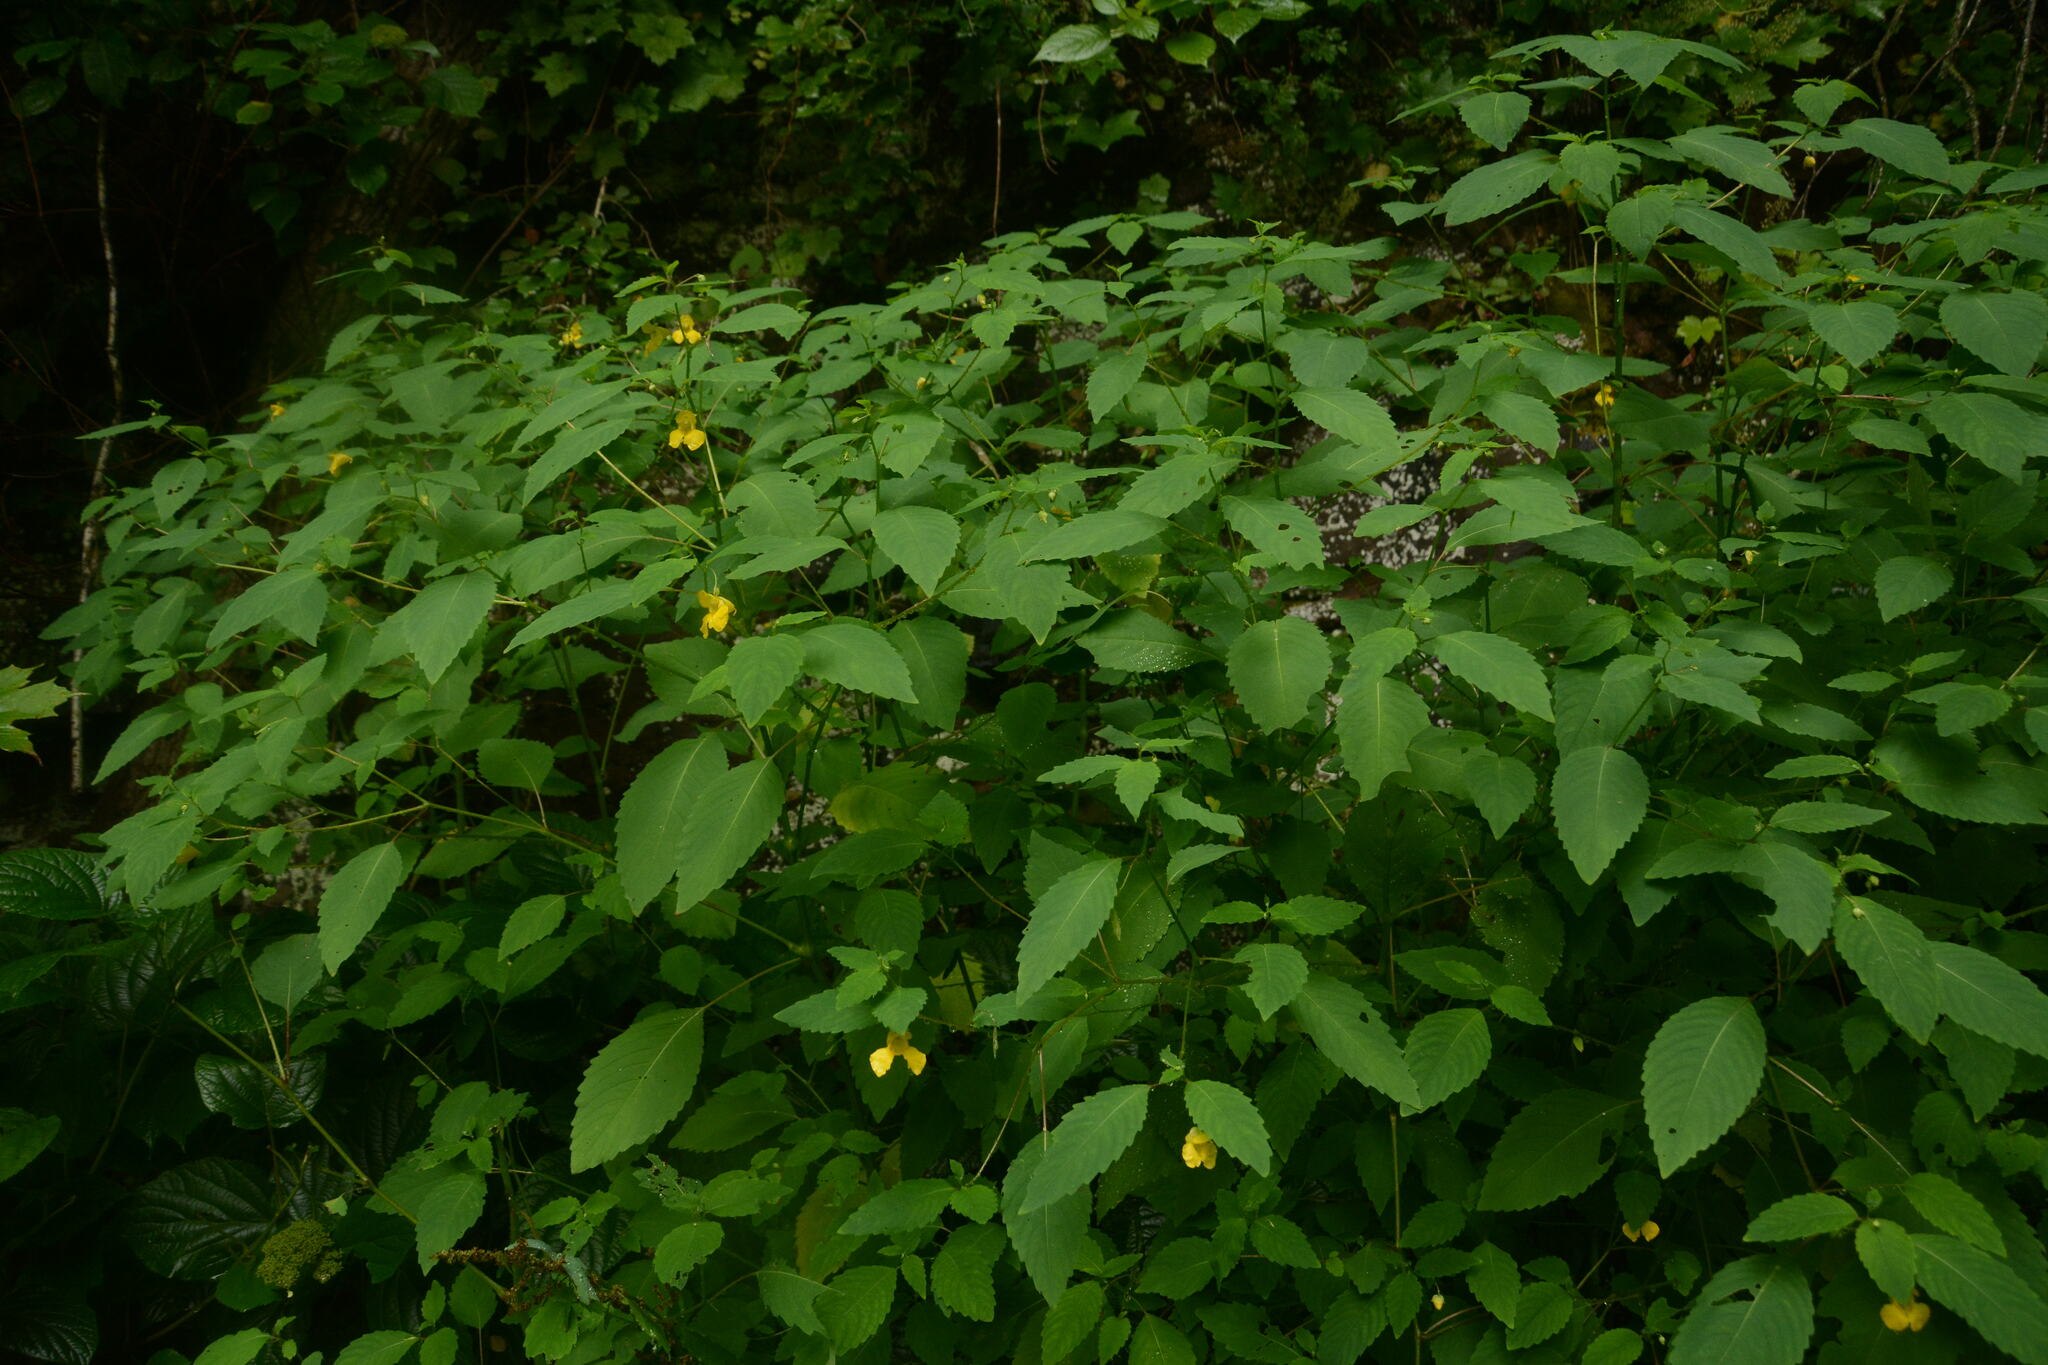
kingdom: Plantae
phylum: Tracheophyta
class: Magnoliopsida
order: Ericales
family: Balsaminaceae
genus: Impatiens
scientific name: Impatiens pallida
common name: Pale snapweed
